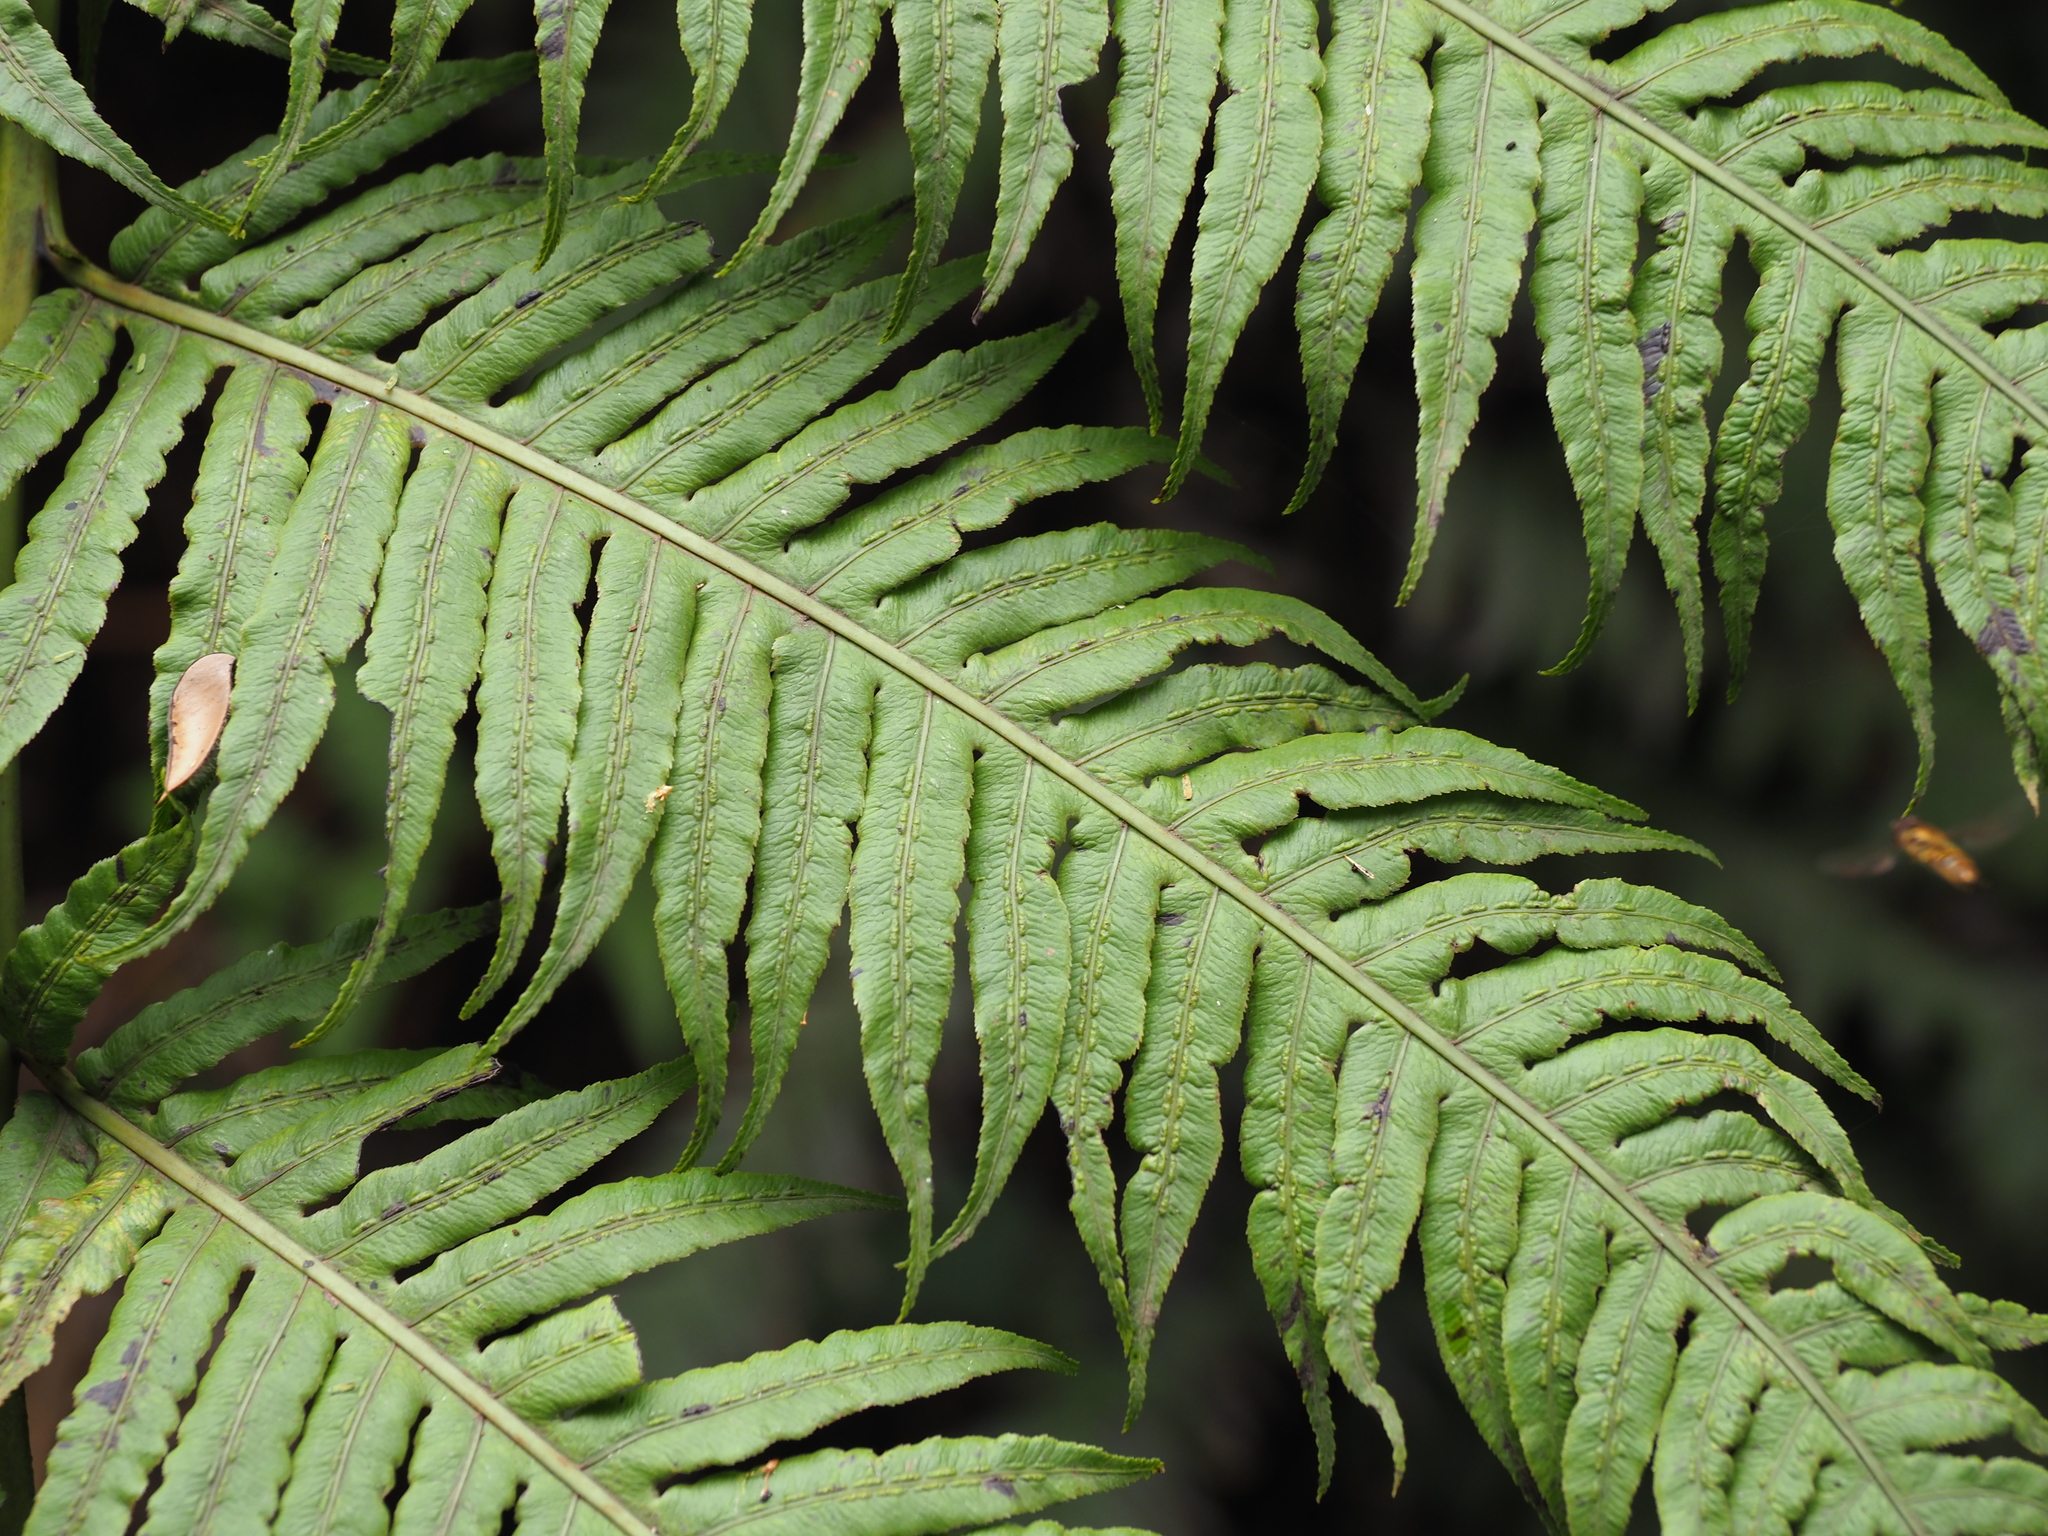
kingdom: Plantae
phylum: Tracheophyta
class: Polypodiopsida
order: Polypodiales
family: Blechnaceae
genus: Woodwardia
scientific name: Woodwardia radicans
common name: Rooting chainfern
